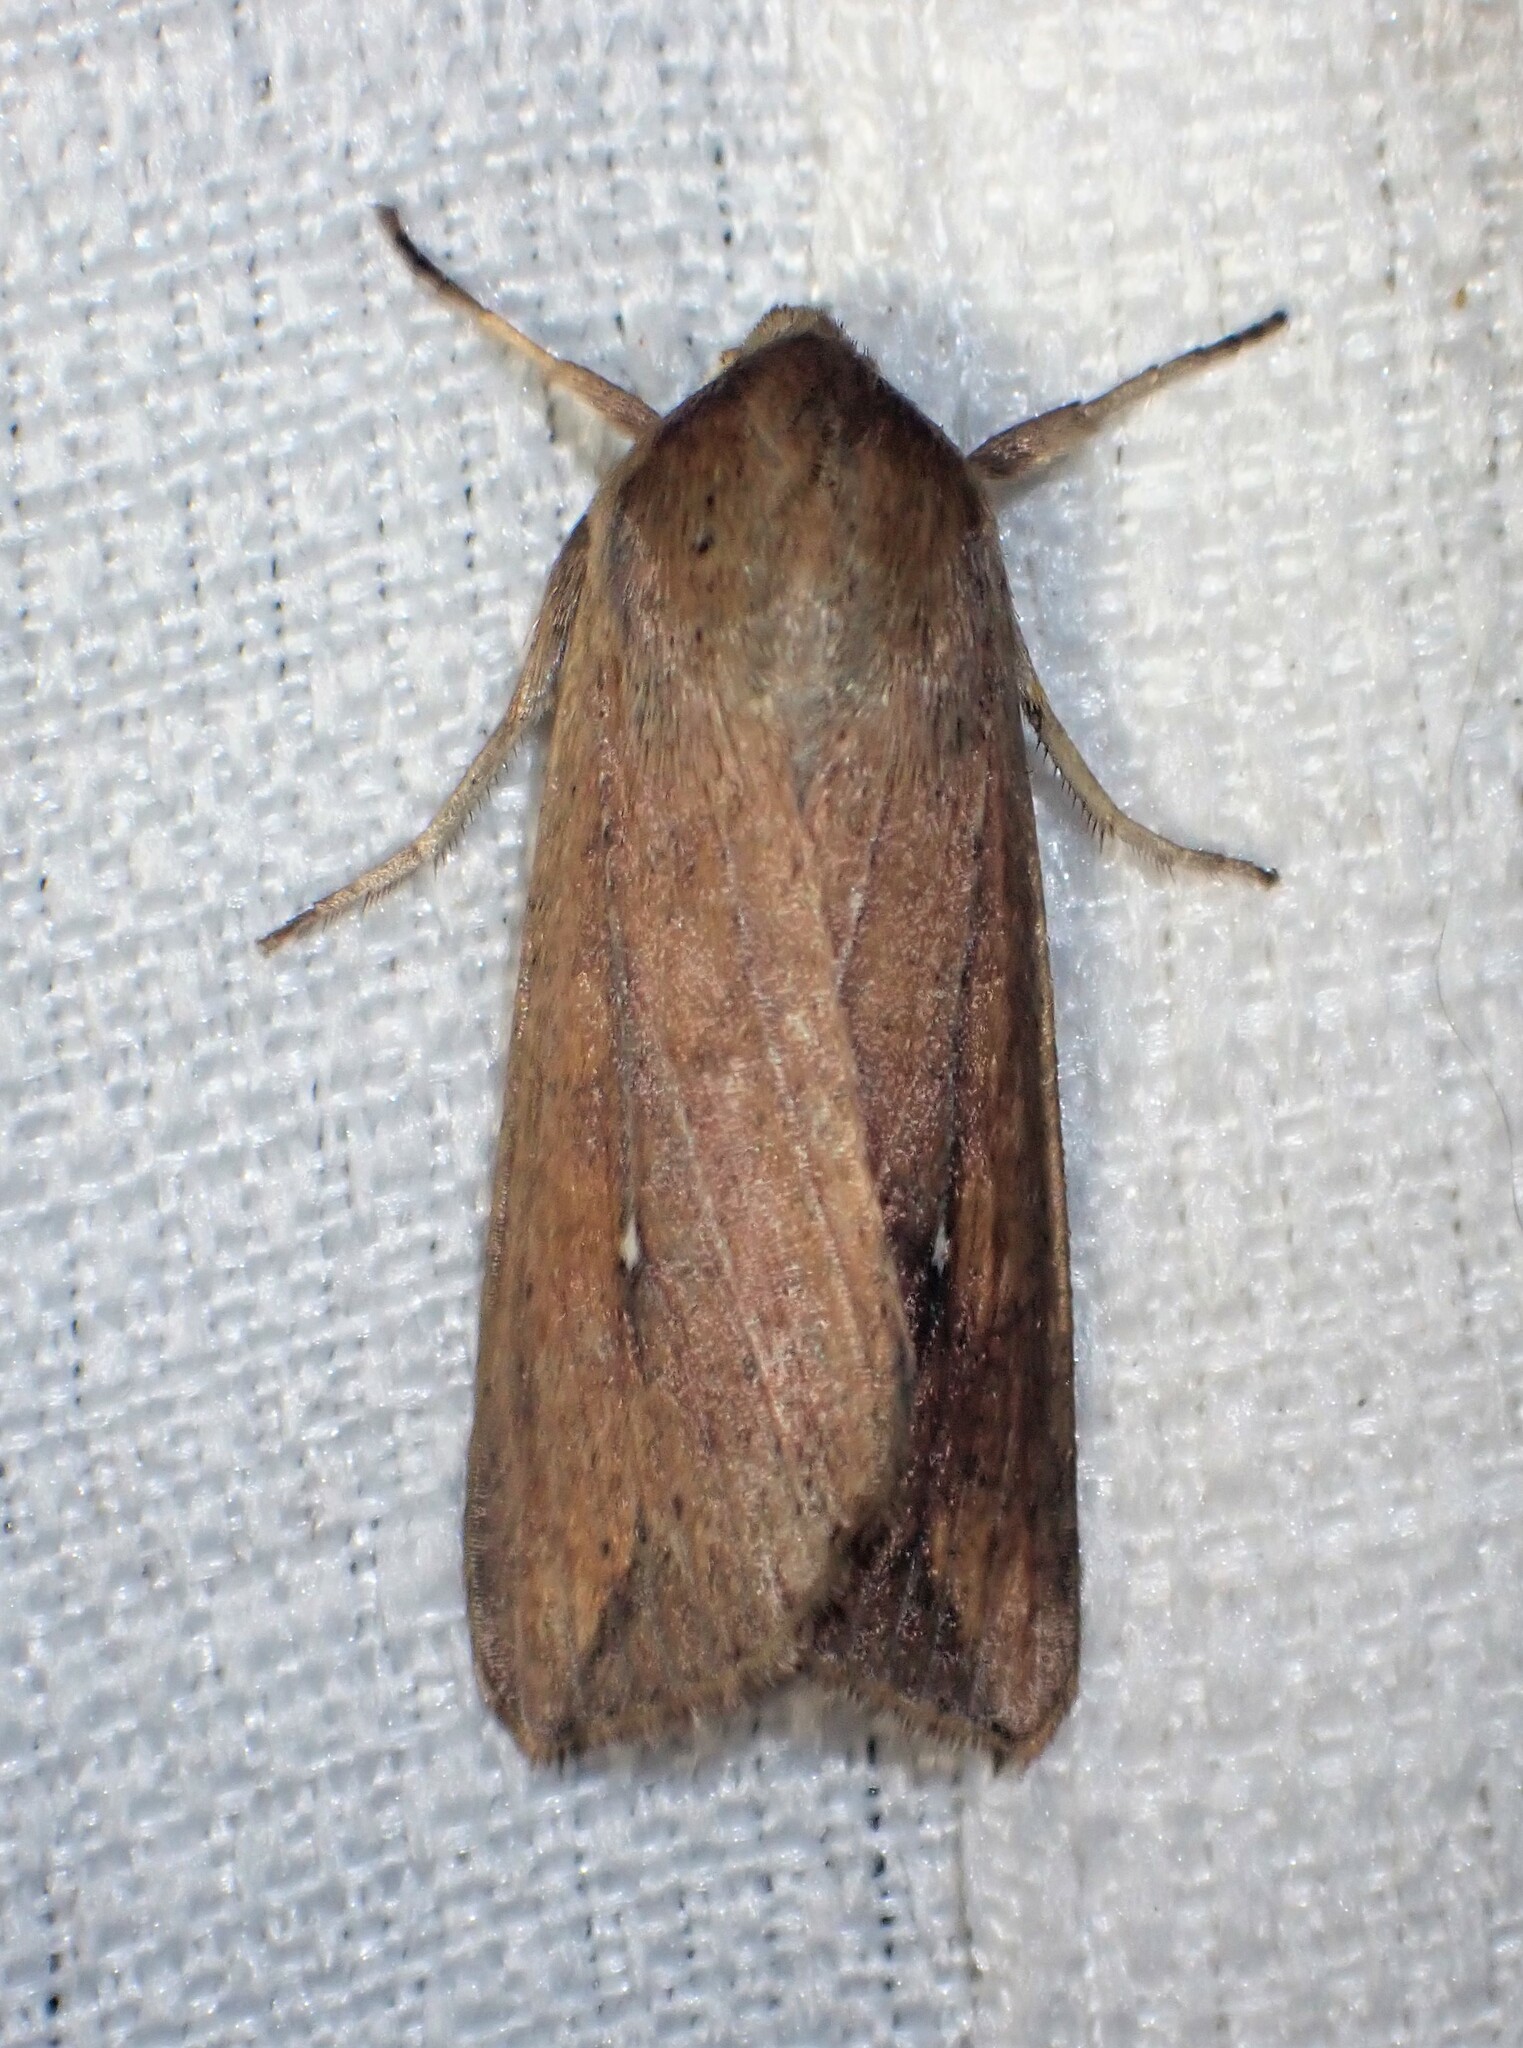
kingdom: Animalia
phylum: Arthropoda
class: Insecta
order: Lepidoptera
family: Noctuidae
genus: Mythimna
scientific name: Mythimna unipuncta
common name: White-speck
